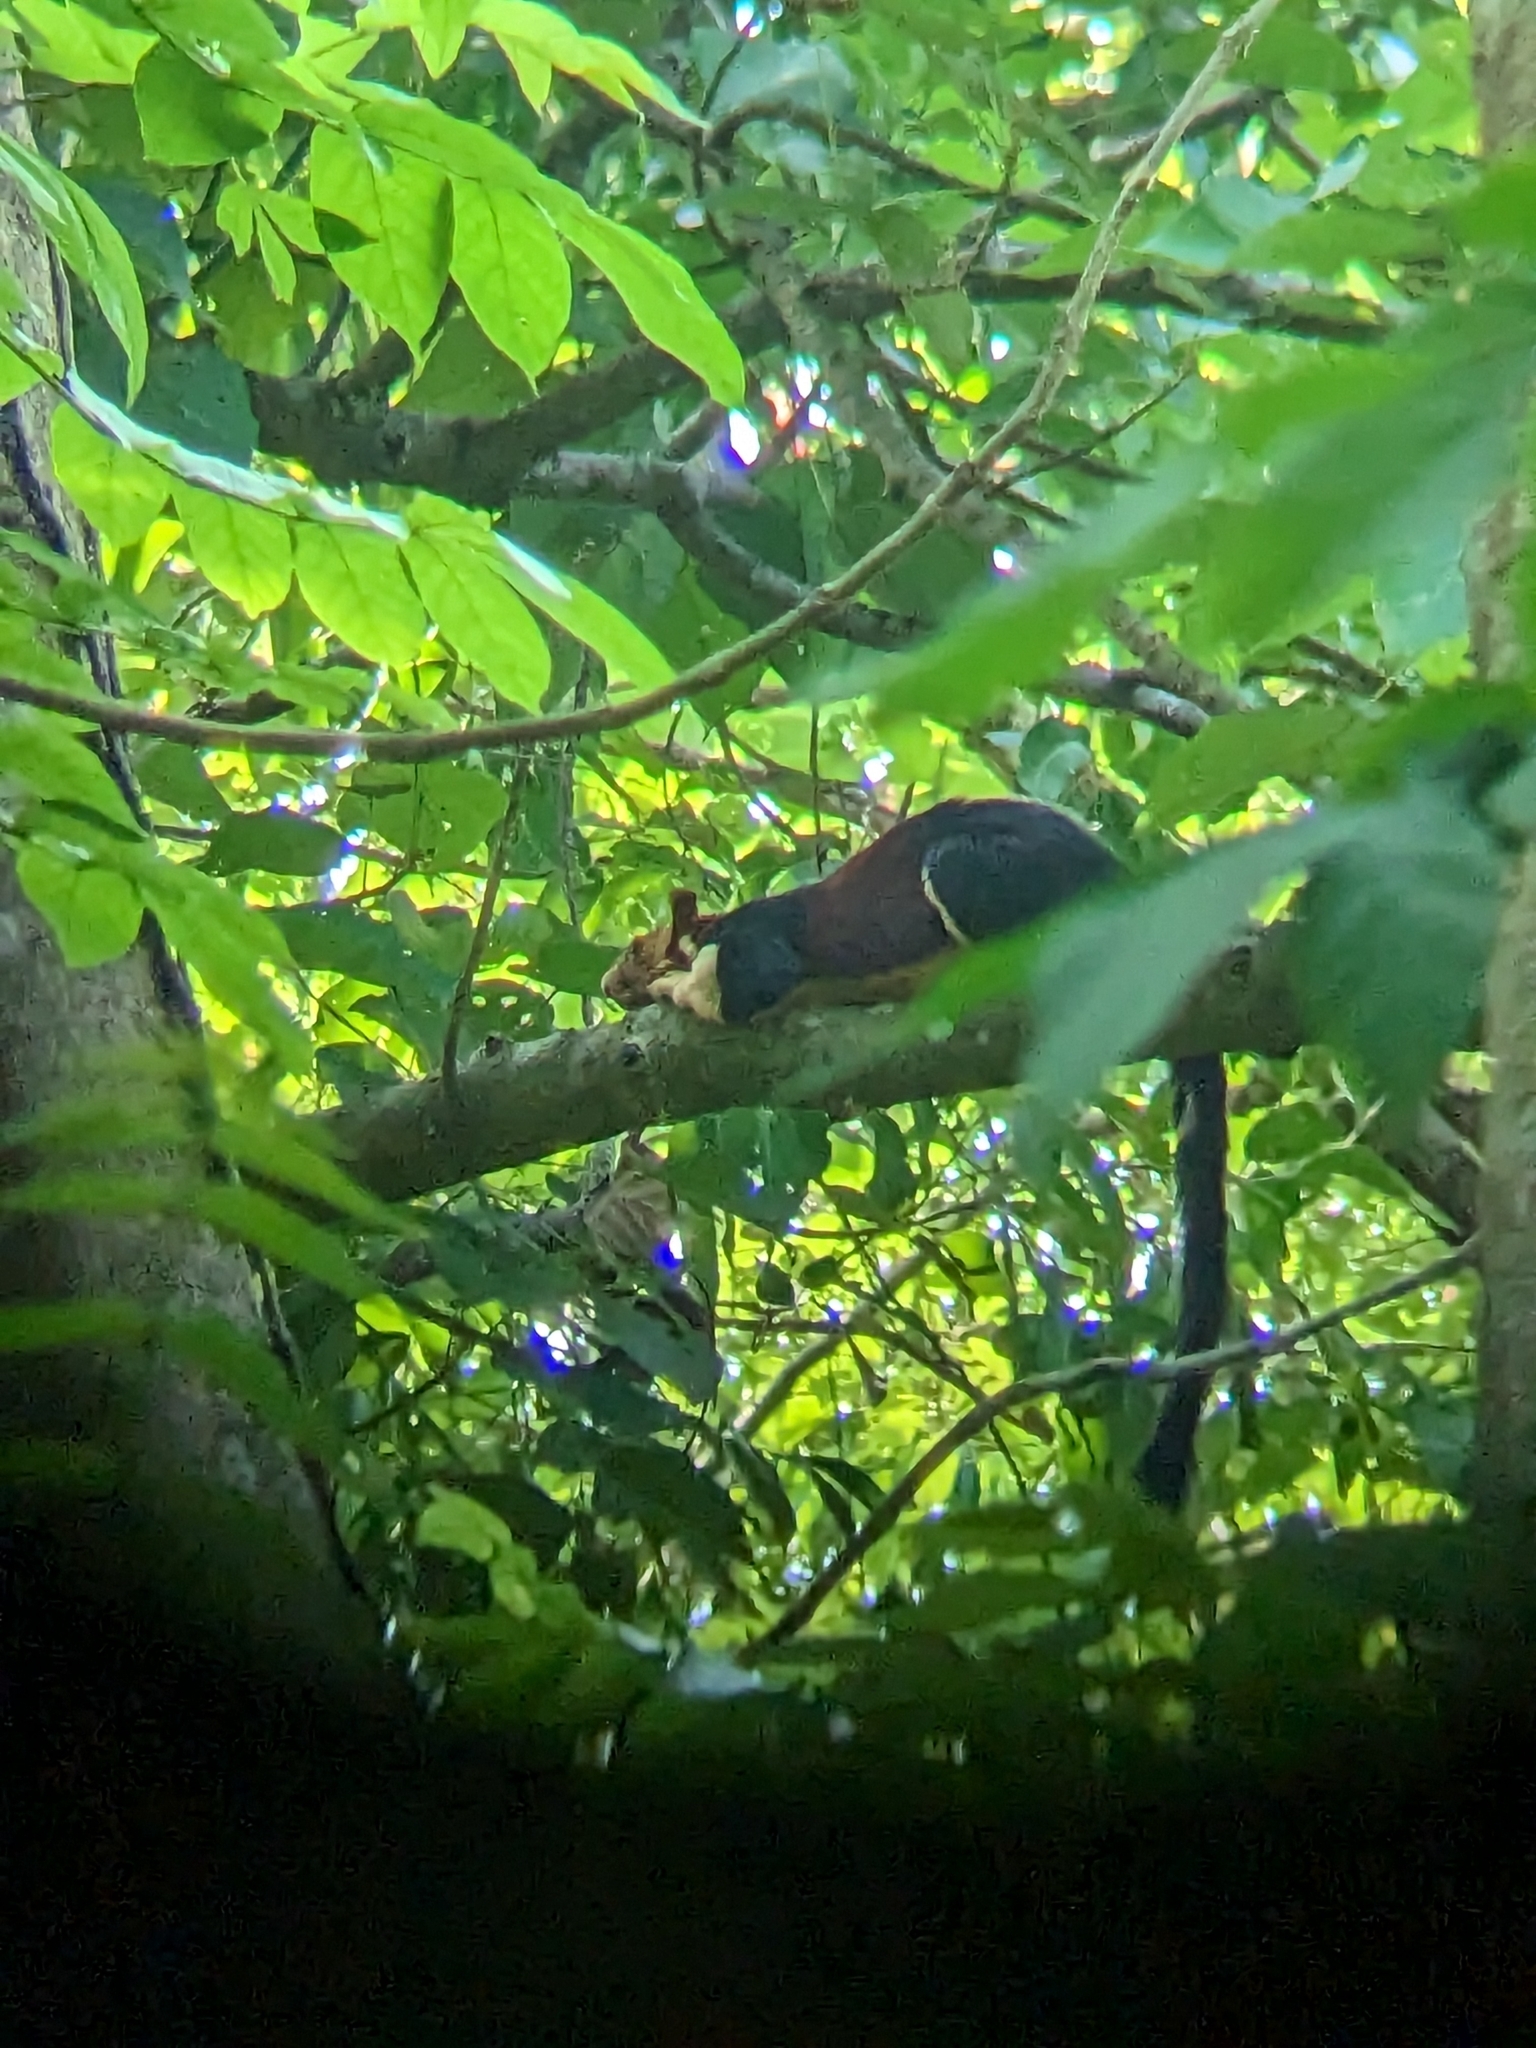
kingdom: Animalia
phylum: Chordata
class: Mammalia
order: Rodentia
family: Sciuridae
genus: Ratufa
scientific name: Ratufa indica
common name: Indian giant squirrel
